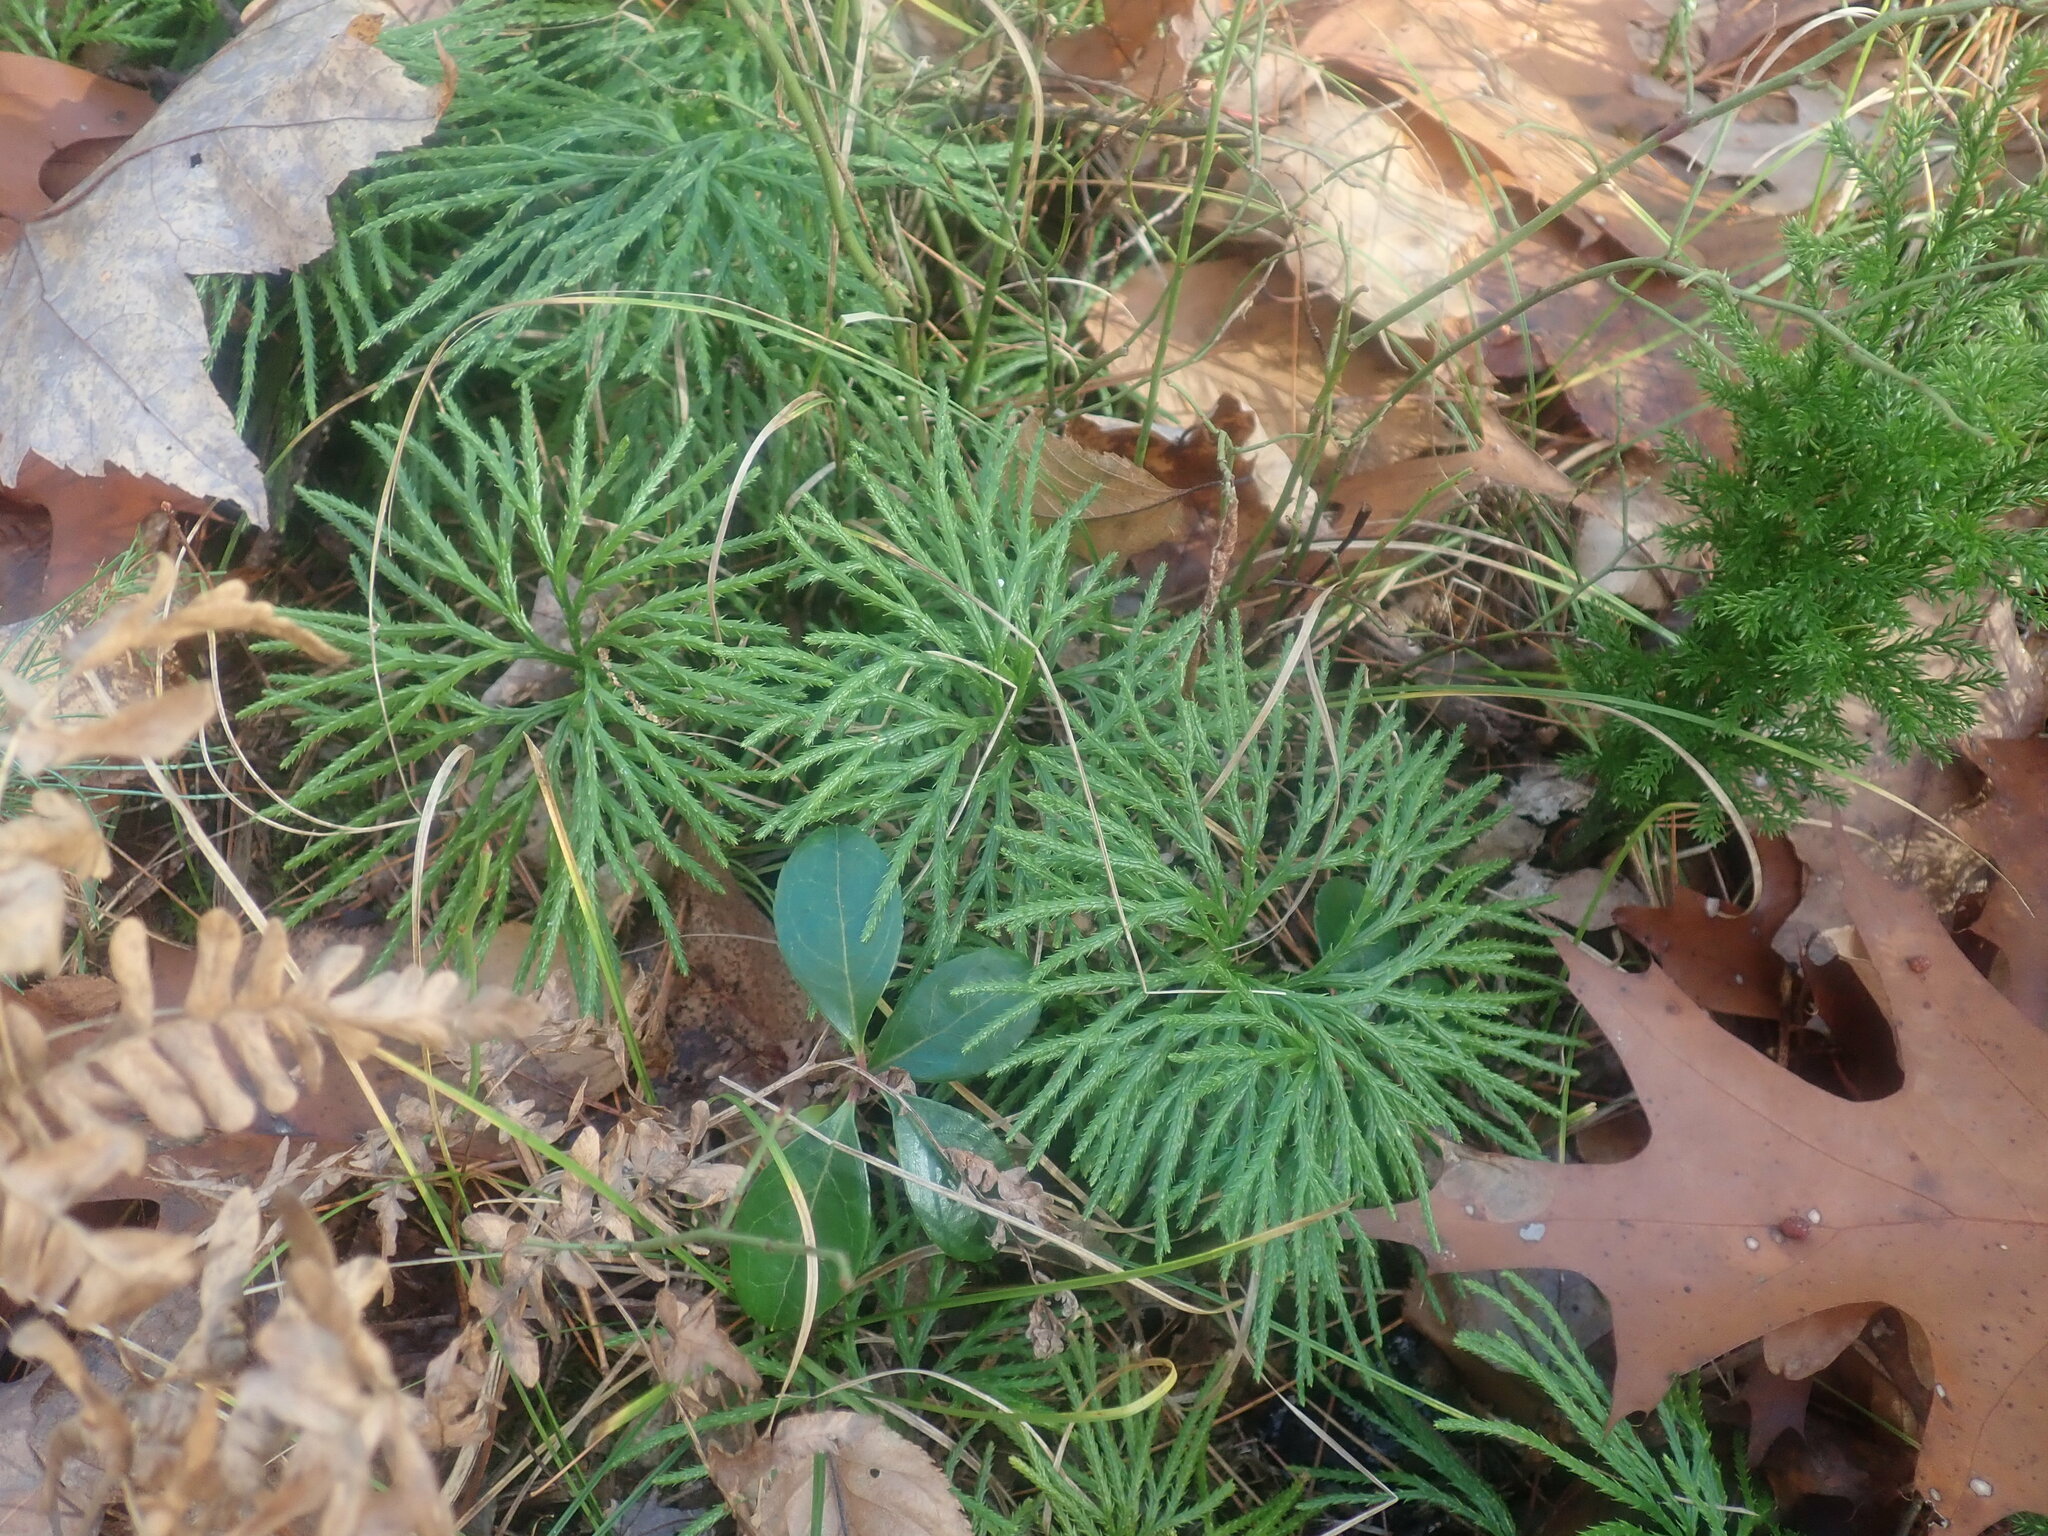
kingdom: Plantae
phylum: Tracheophyta
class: Lycopodiopsida
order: Lycopodiales
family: Lycopodiaceae
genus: Diphasiastrum
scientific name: Diphasiastrum digitatum
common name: Southern running-pine
